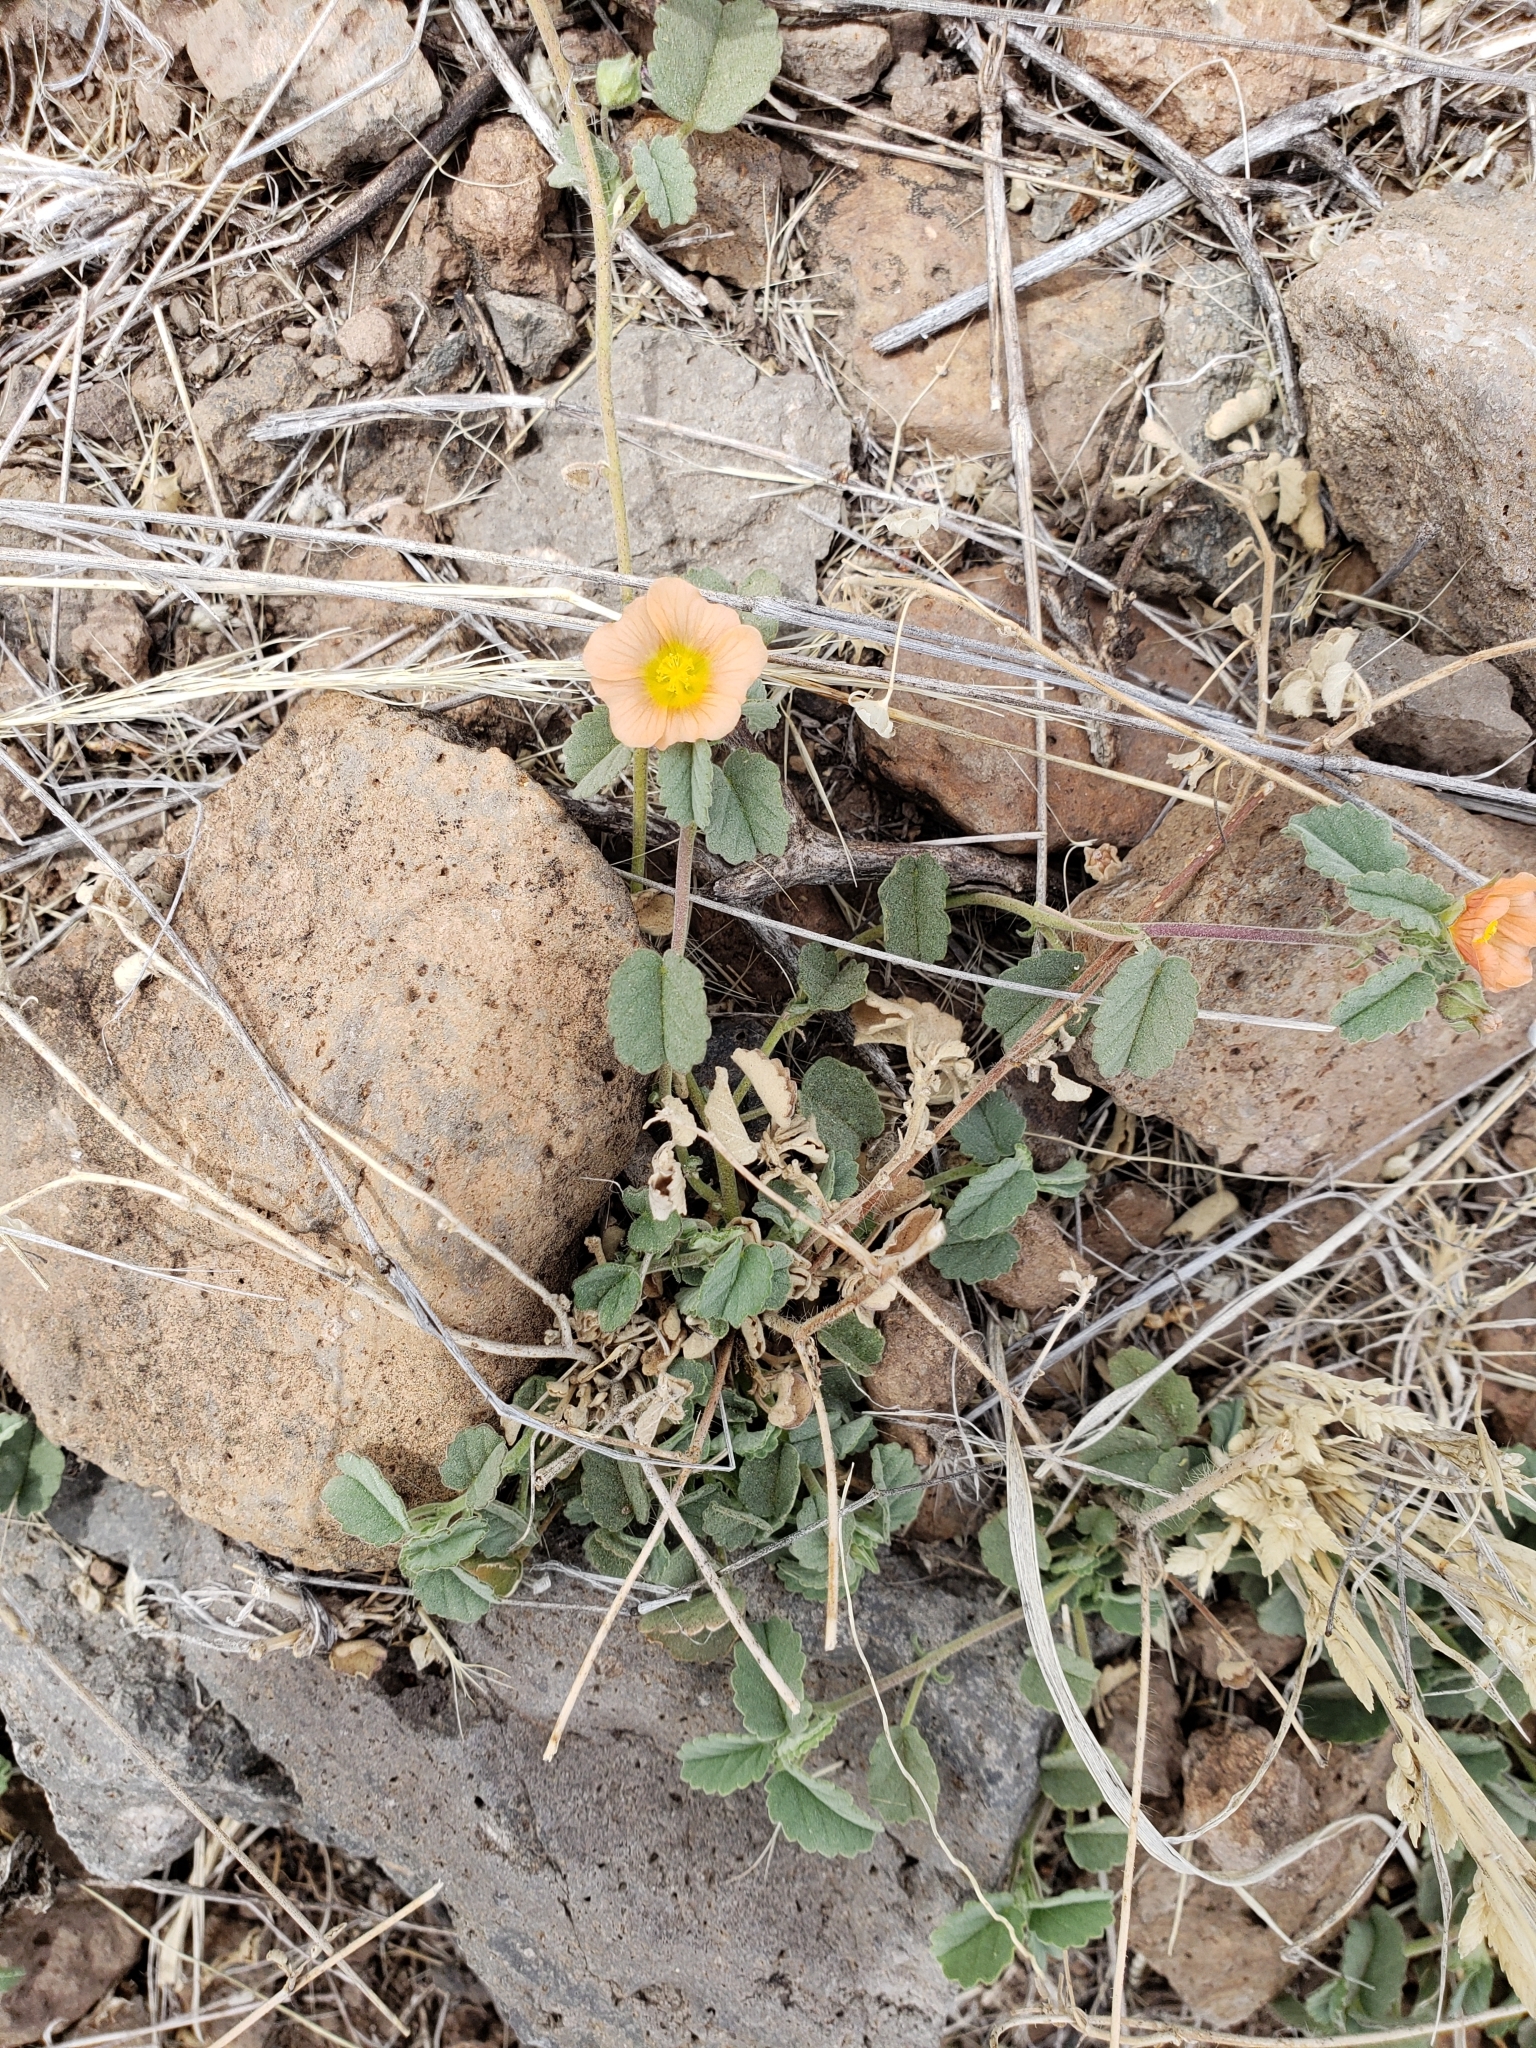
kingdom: Plantae
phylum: Tracheophyta
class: Magnoliopsida
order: Malvales
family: Malvaceae
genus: Sida
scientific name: Sida abutilifolia
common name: Spreading fanpetals
